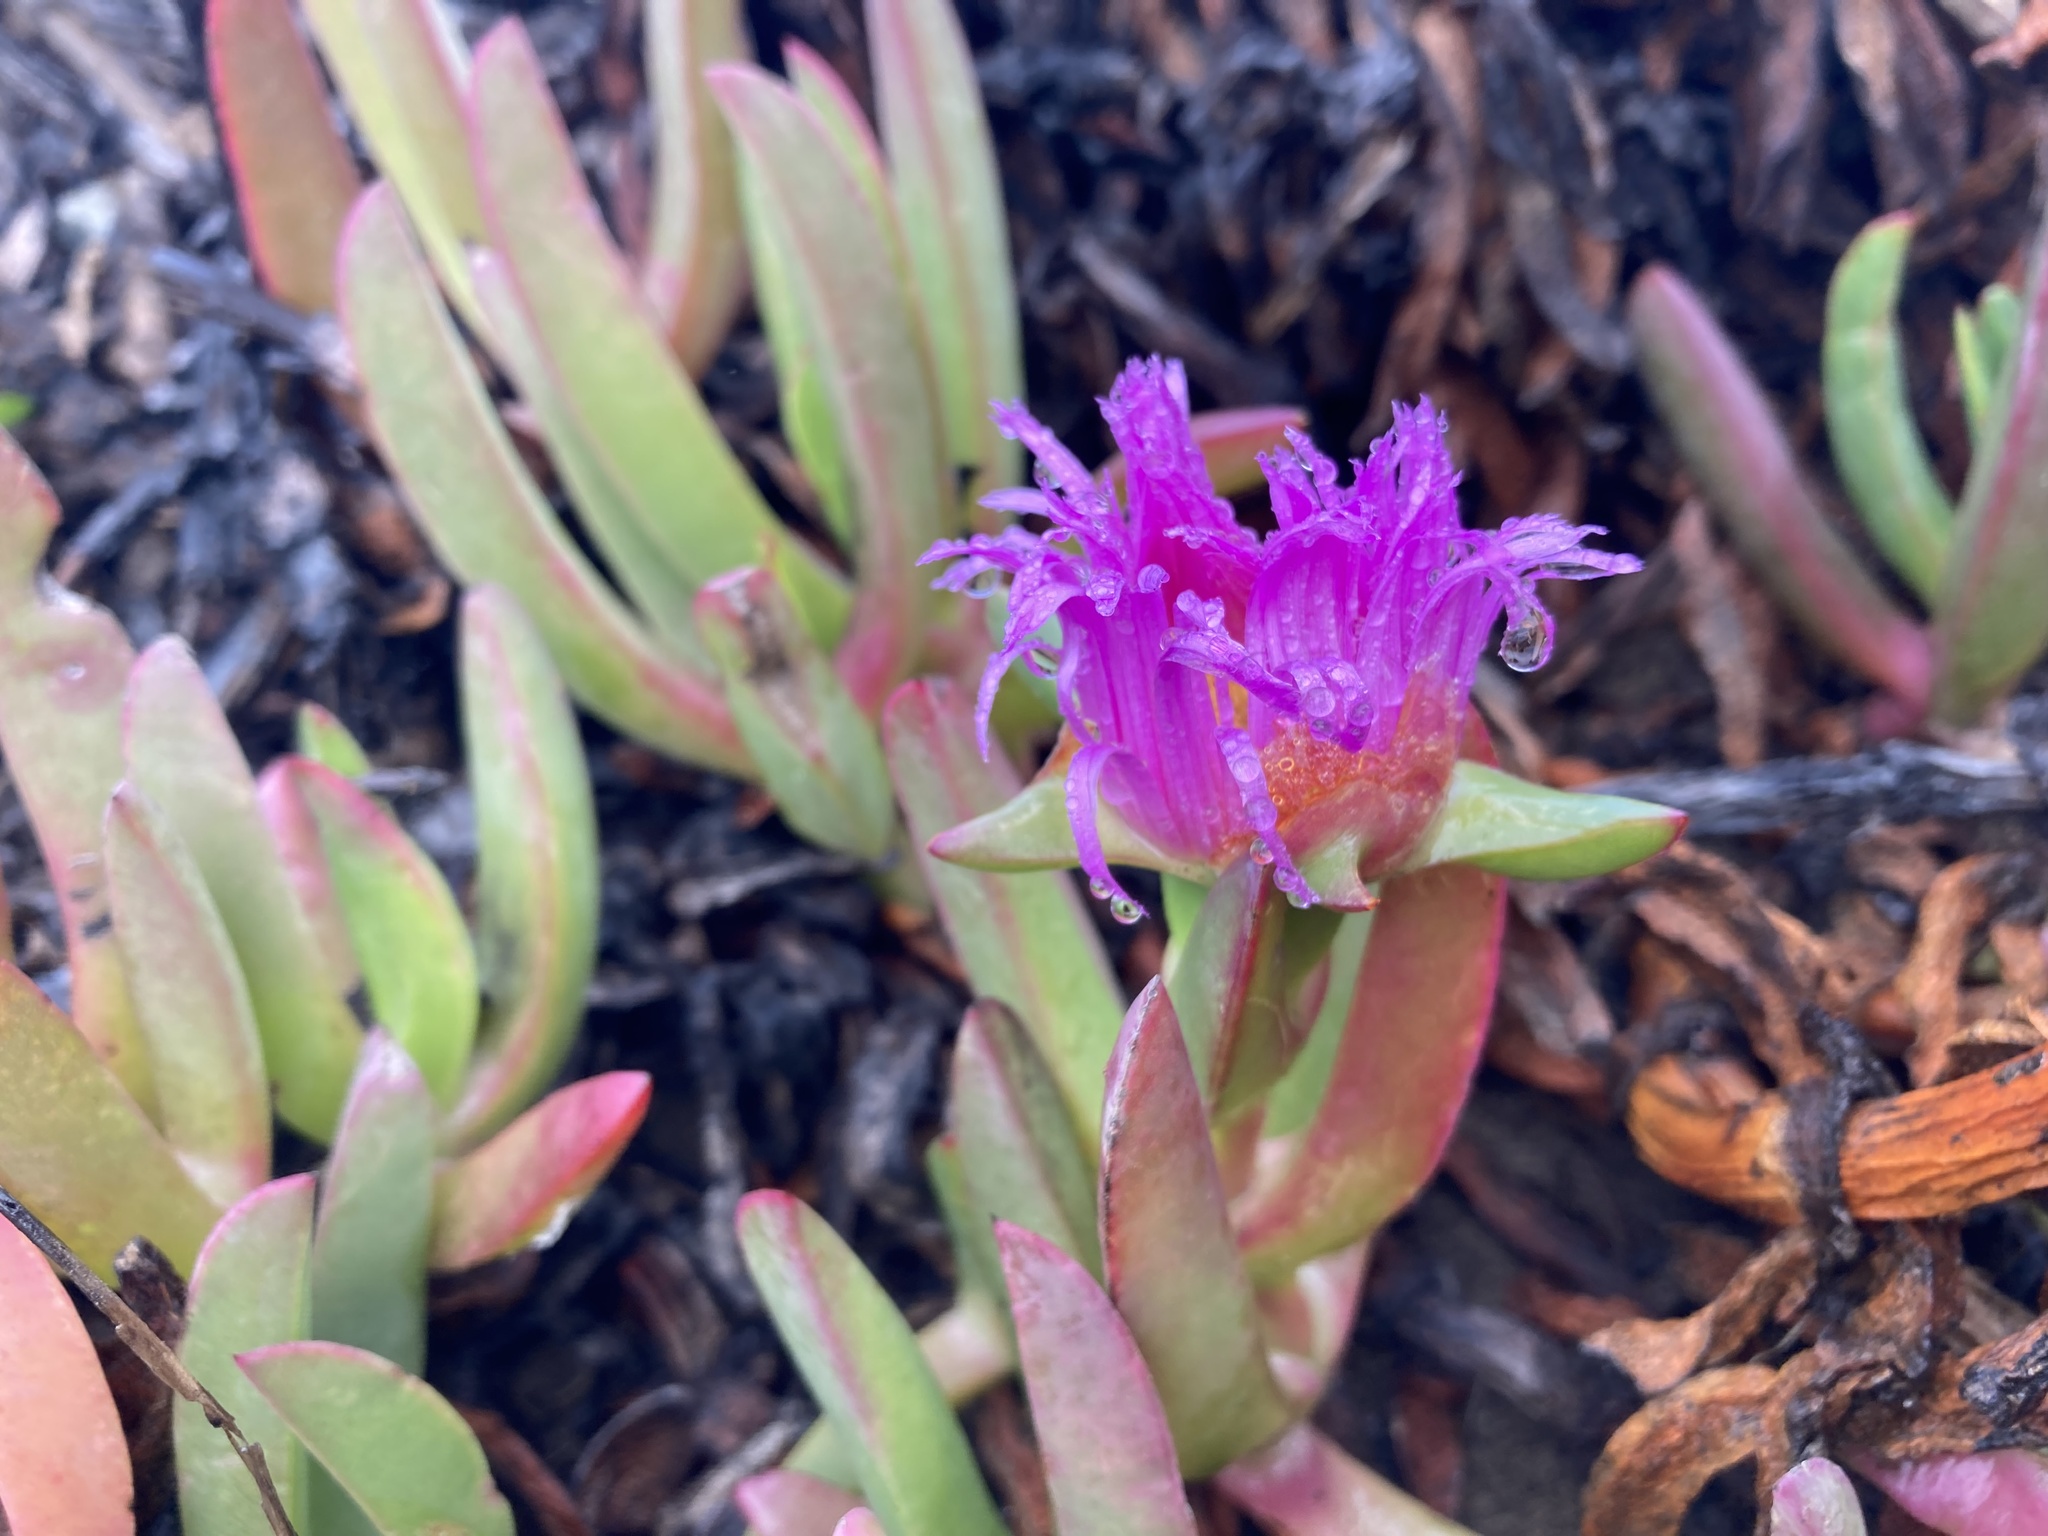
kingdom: Plantae
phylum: Tracheophyta
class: Magnoliopsida
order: Caryophyllales
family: Aizoaceae
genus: Carpobrotus
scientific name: Carpobrotus chilensis
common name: Sea fig
